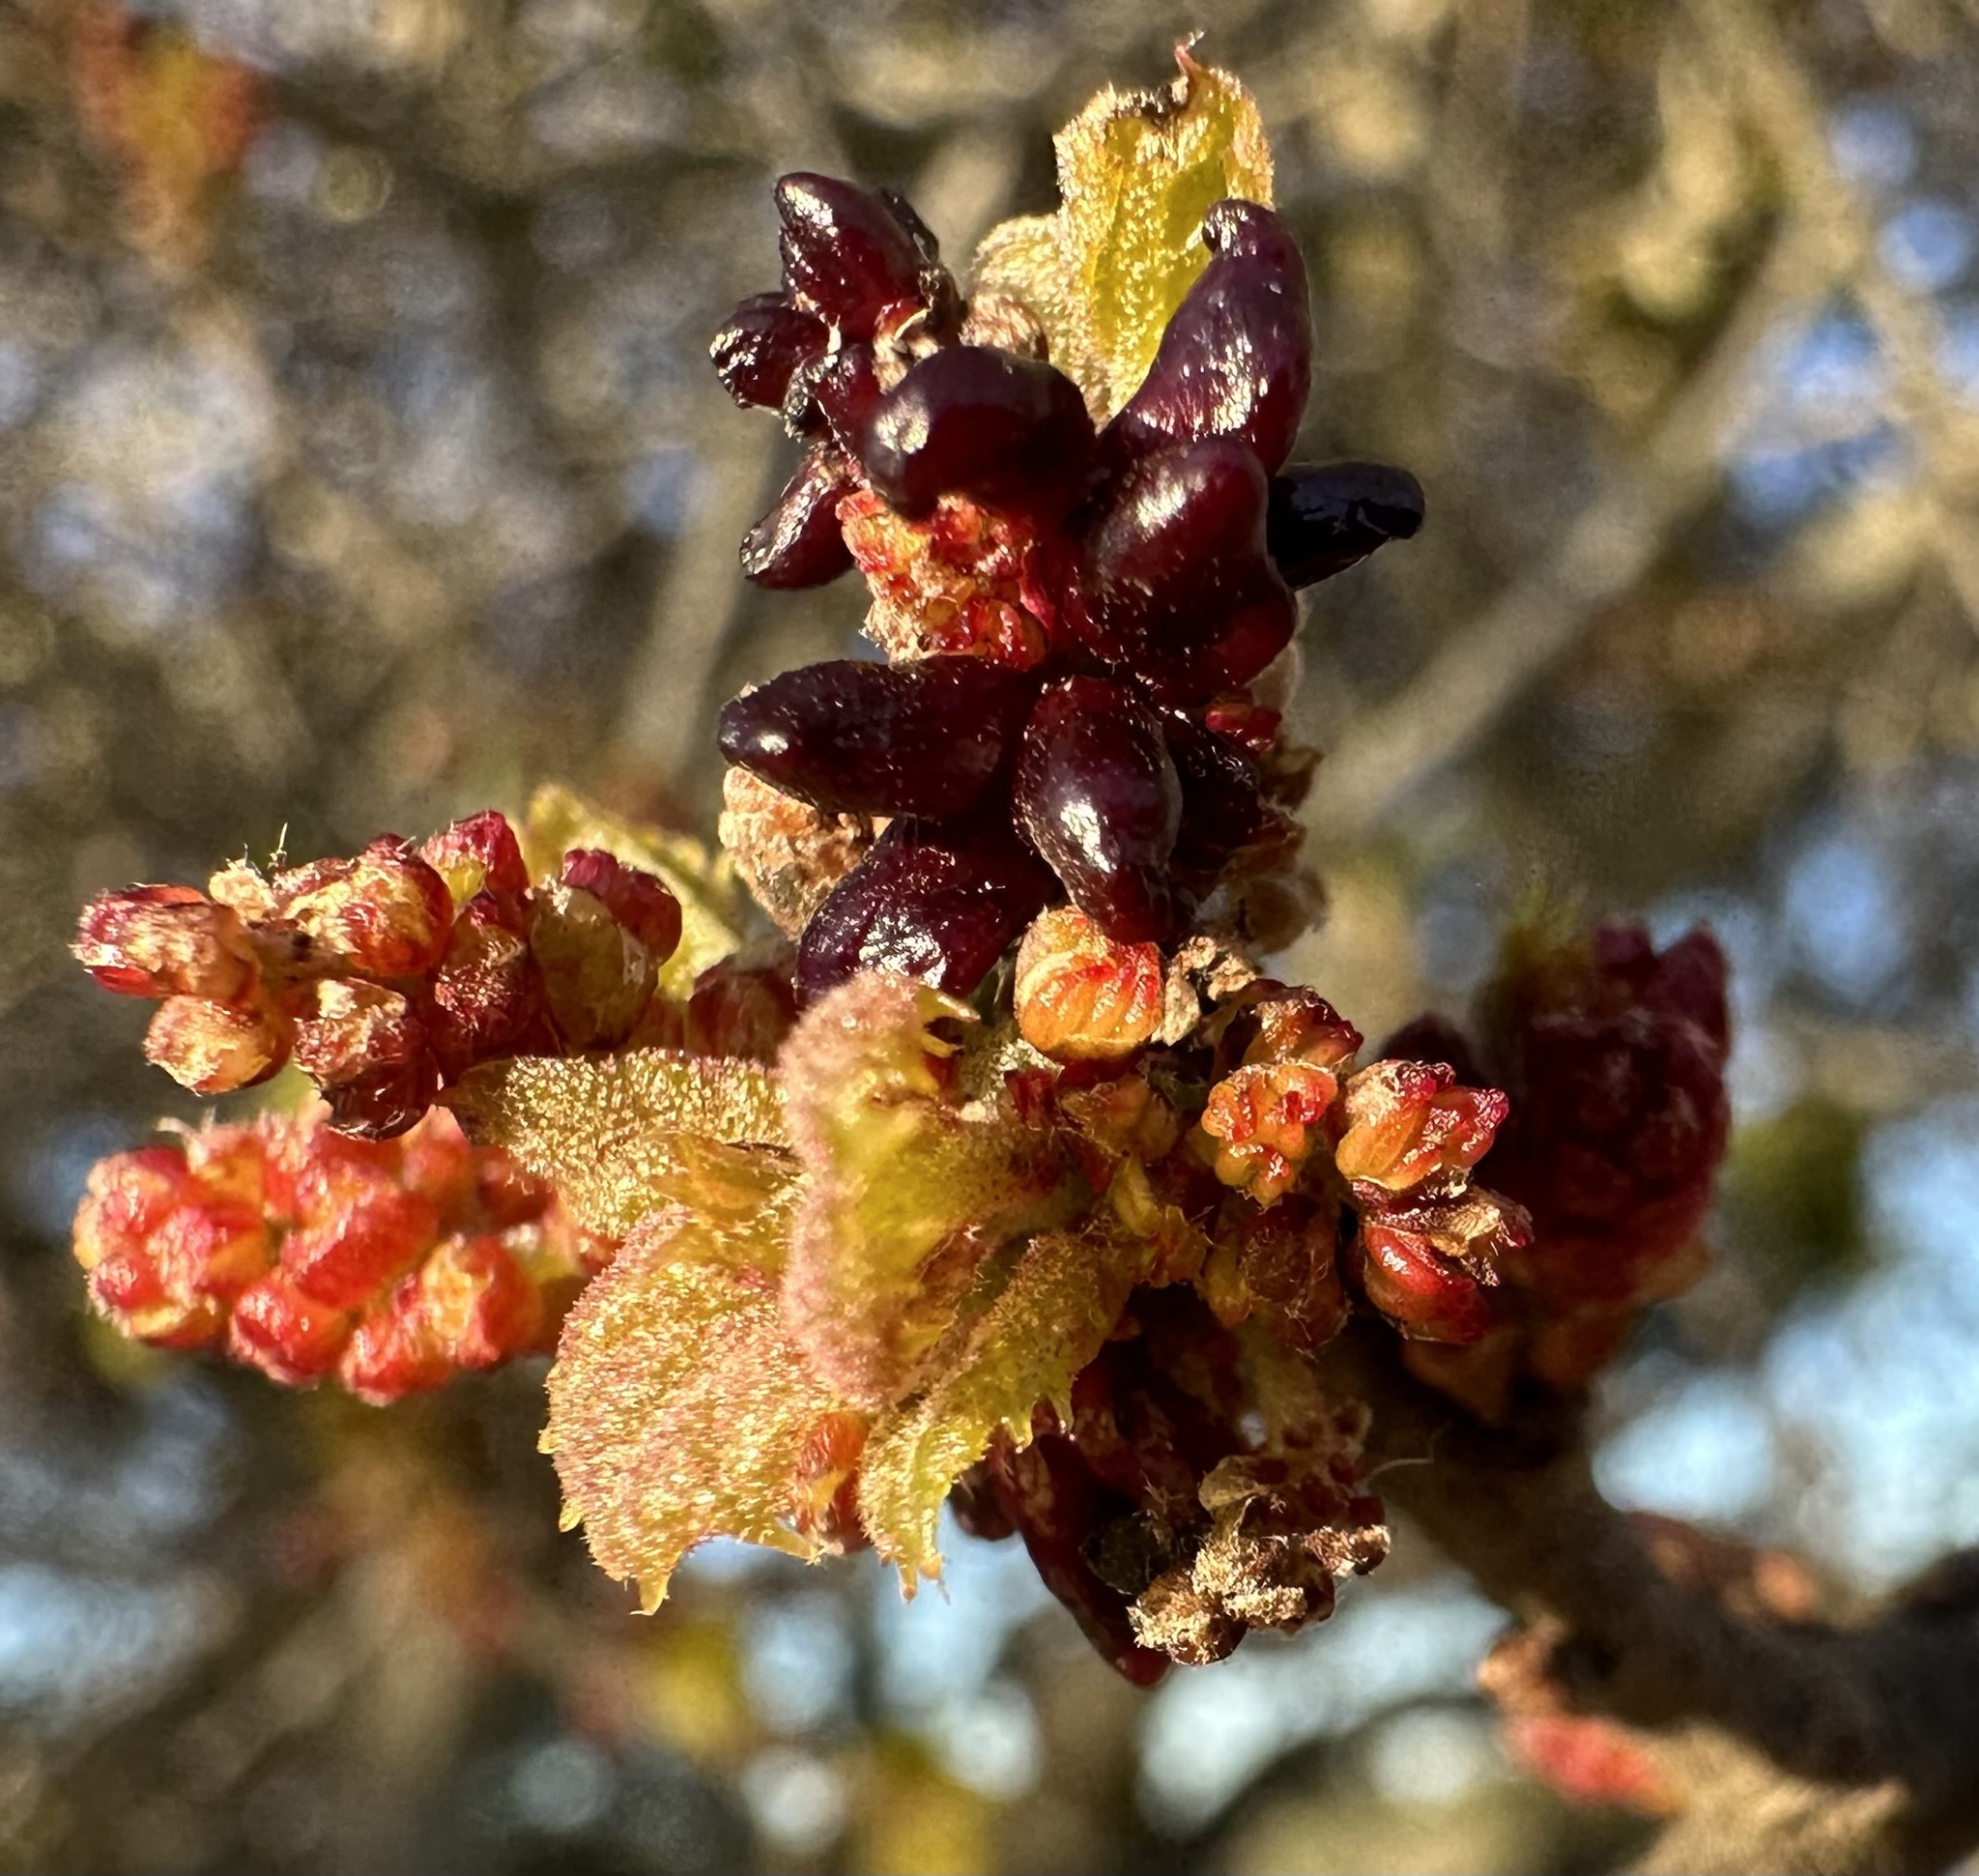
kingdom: Animalia
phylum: Arthropoda
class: Insecta
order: Hymenoptera
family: Cynipidae
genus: Dryocosmus
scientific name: Dryocosmus
